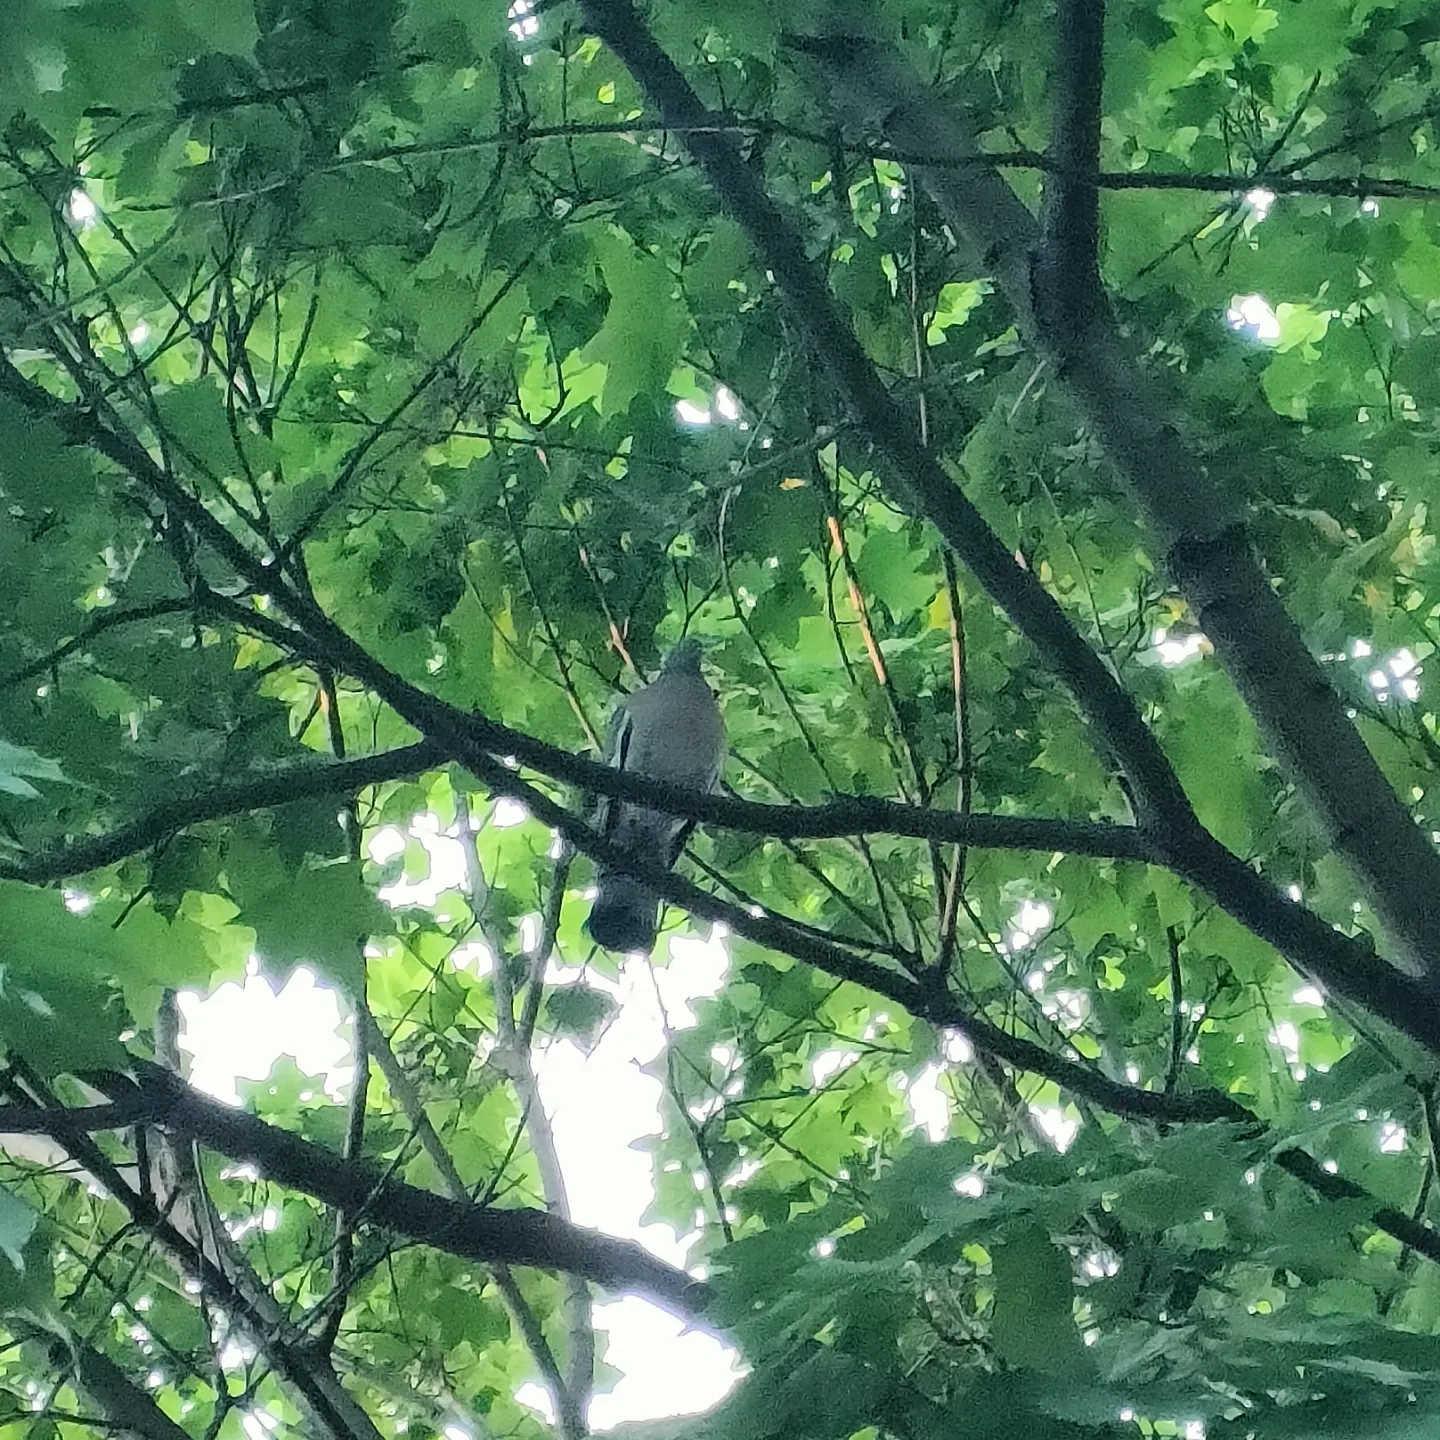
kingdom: Animalia
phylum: Chordata
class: Aves
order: Columbiformes
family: Columbidae
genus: Columba
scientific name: Columba palumbus
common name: Common wood pigeon
